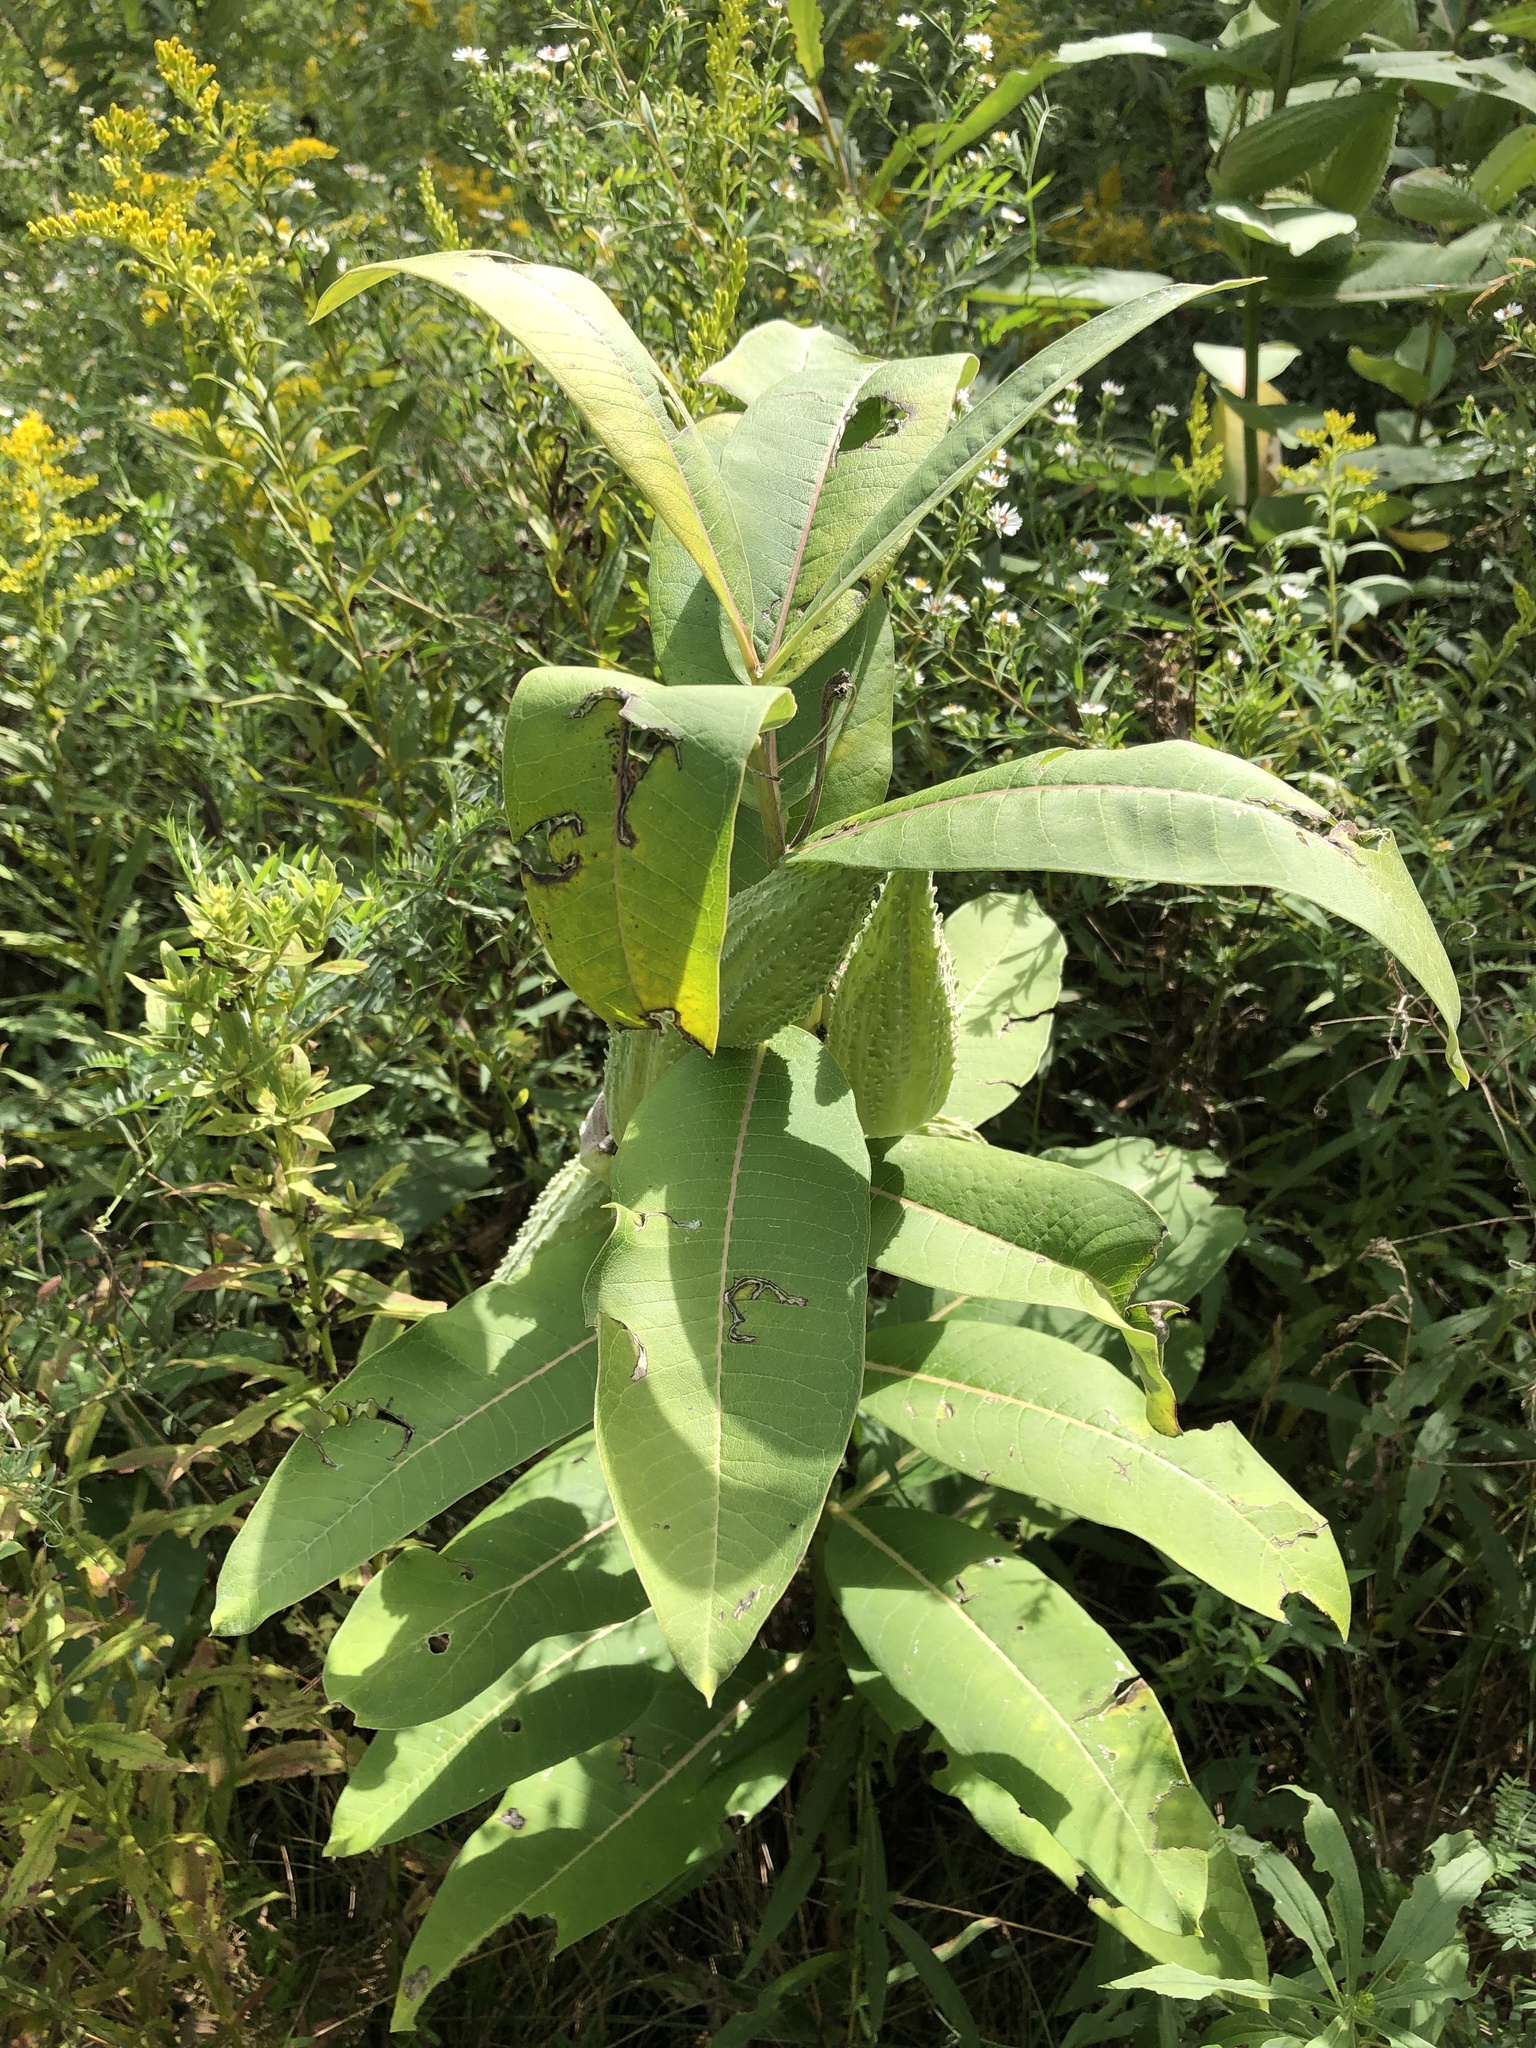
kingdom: Plantae
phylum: Tracheophyta
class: Magnoliopsida
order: Gentianales
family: Apocynaceae
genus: Asclepias
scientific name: Asclepias syriaca
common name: Common milkweed
